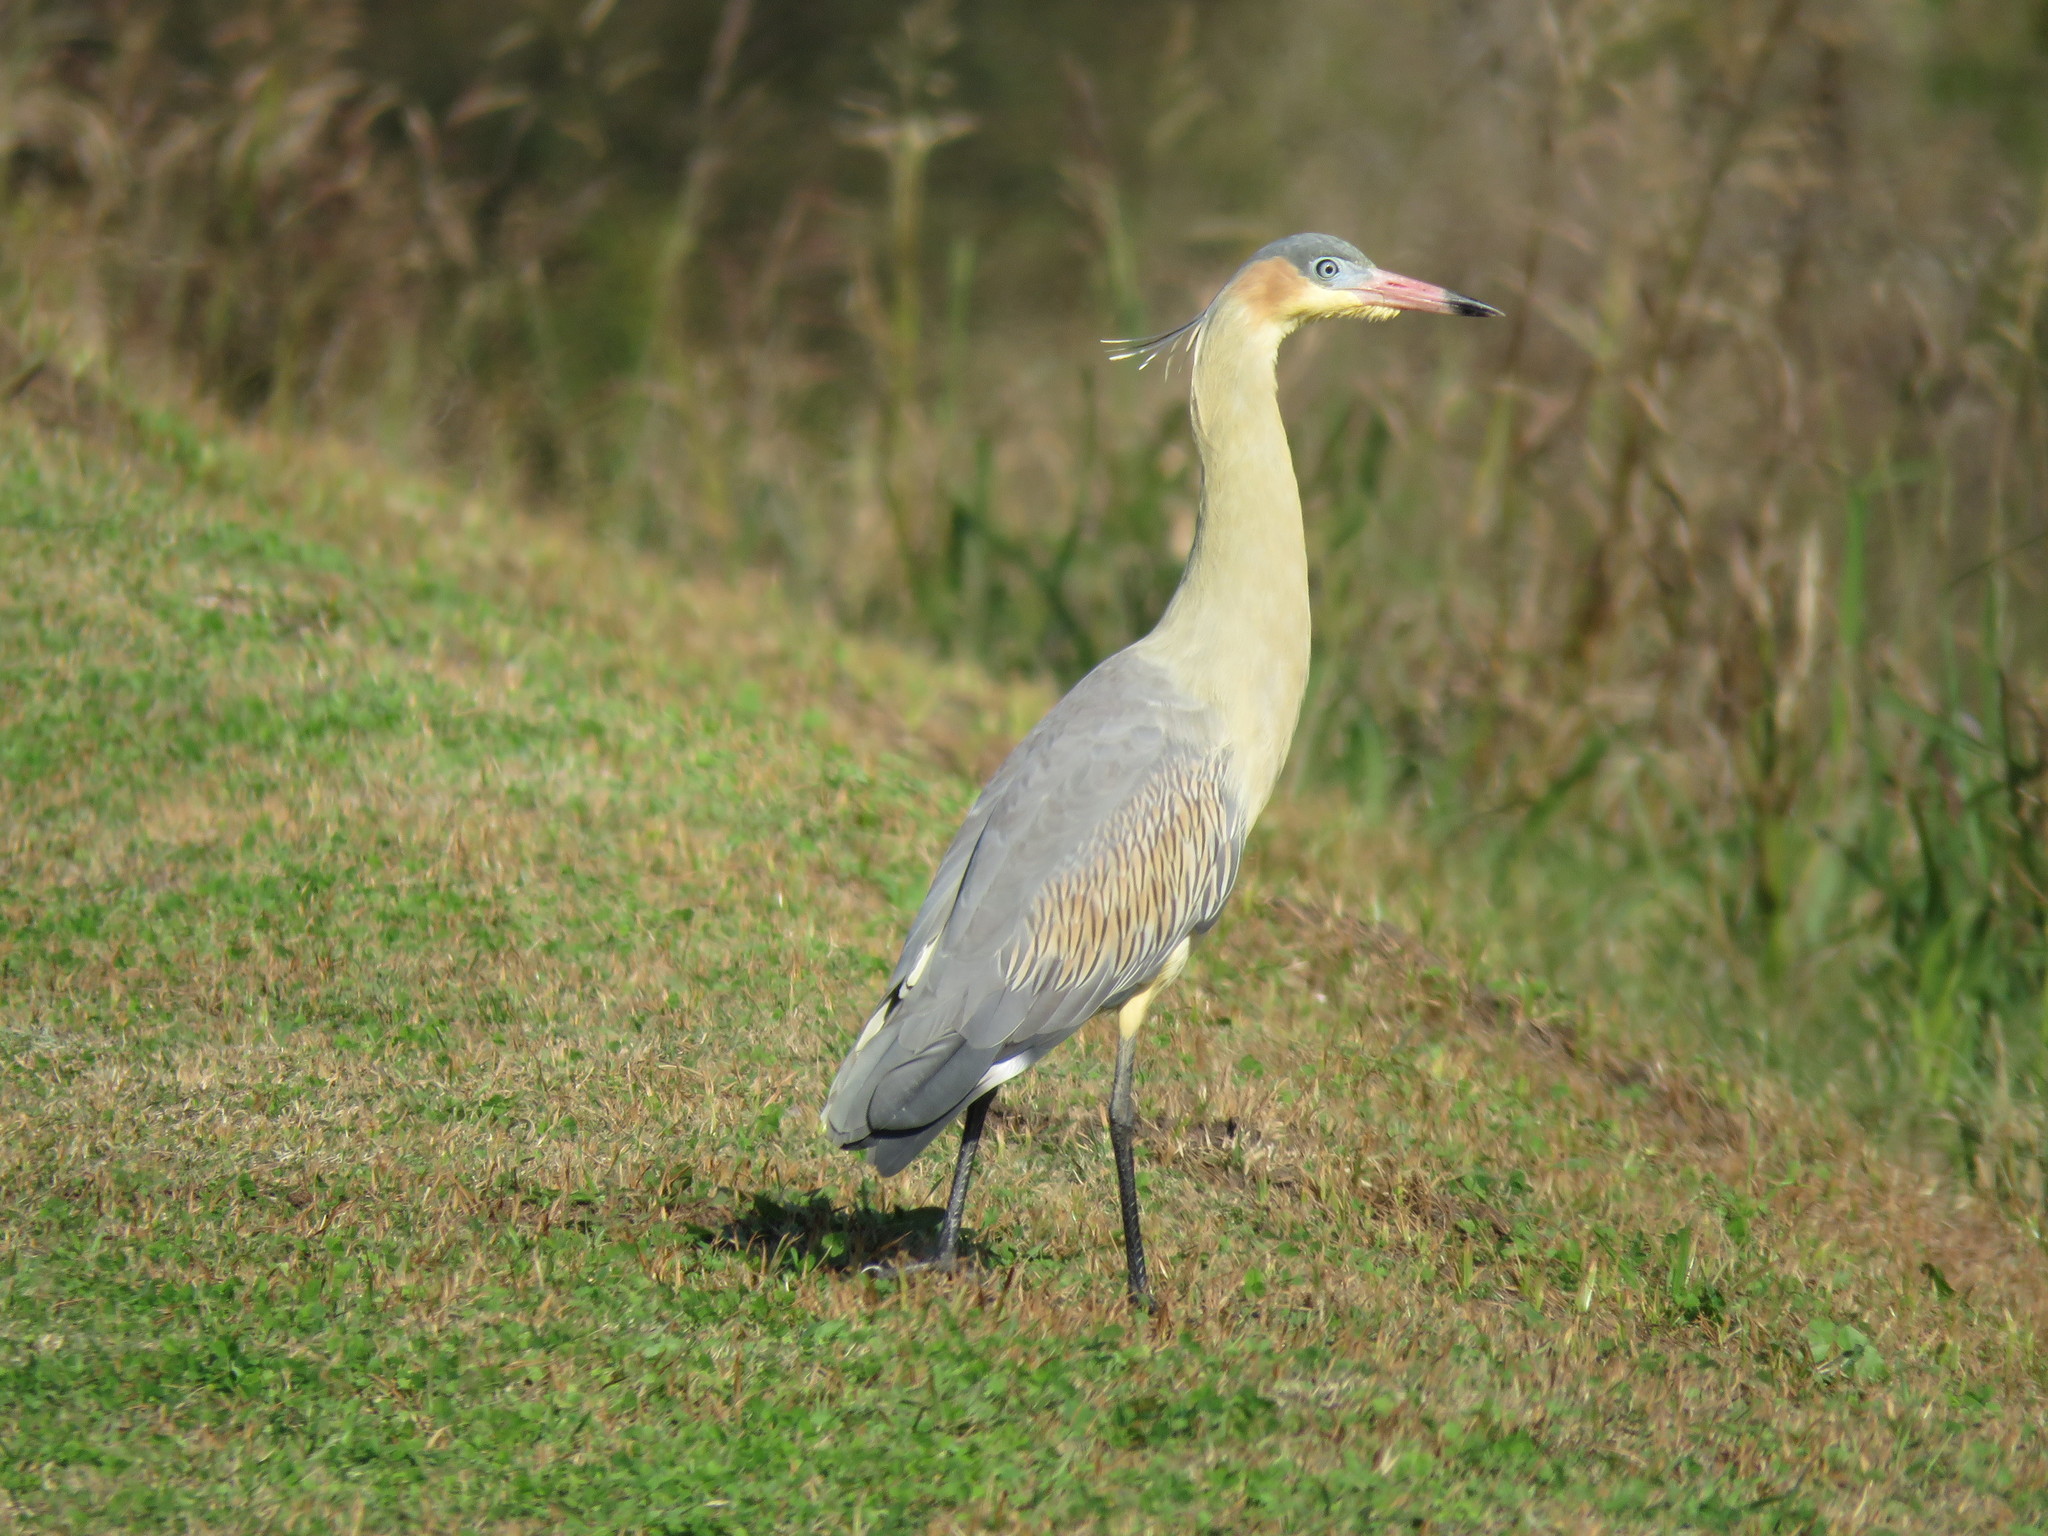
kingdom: Animalia
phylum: Chordata
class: Aves
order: Pelecaniformes
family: Ardeidae
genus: Syrigma
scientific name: Syrigma sibilatrix
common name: Whistling heron
